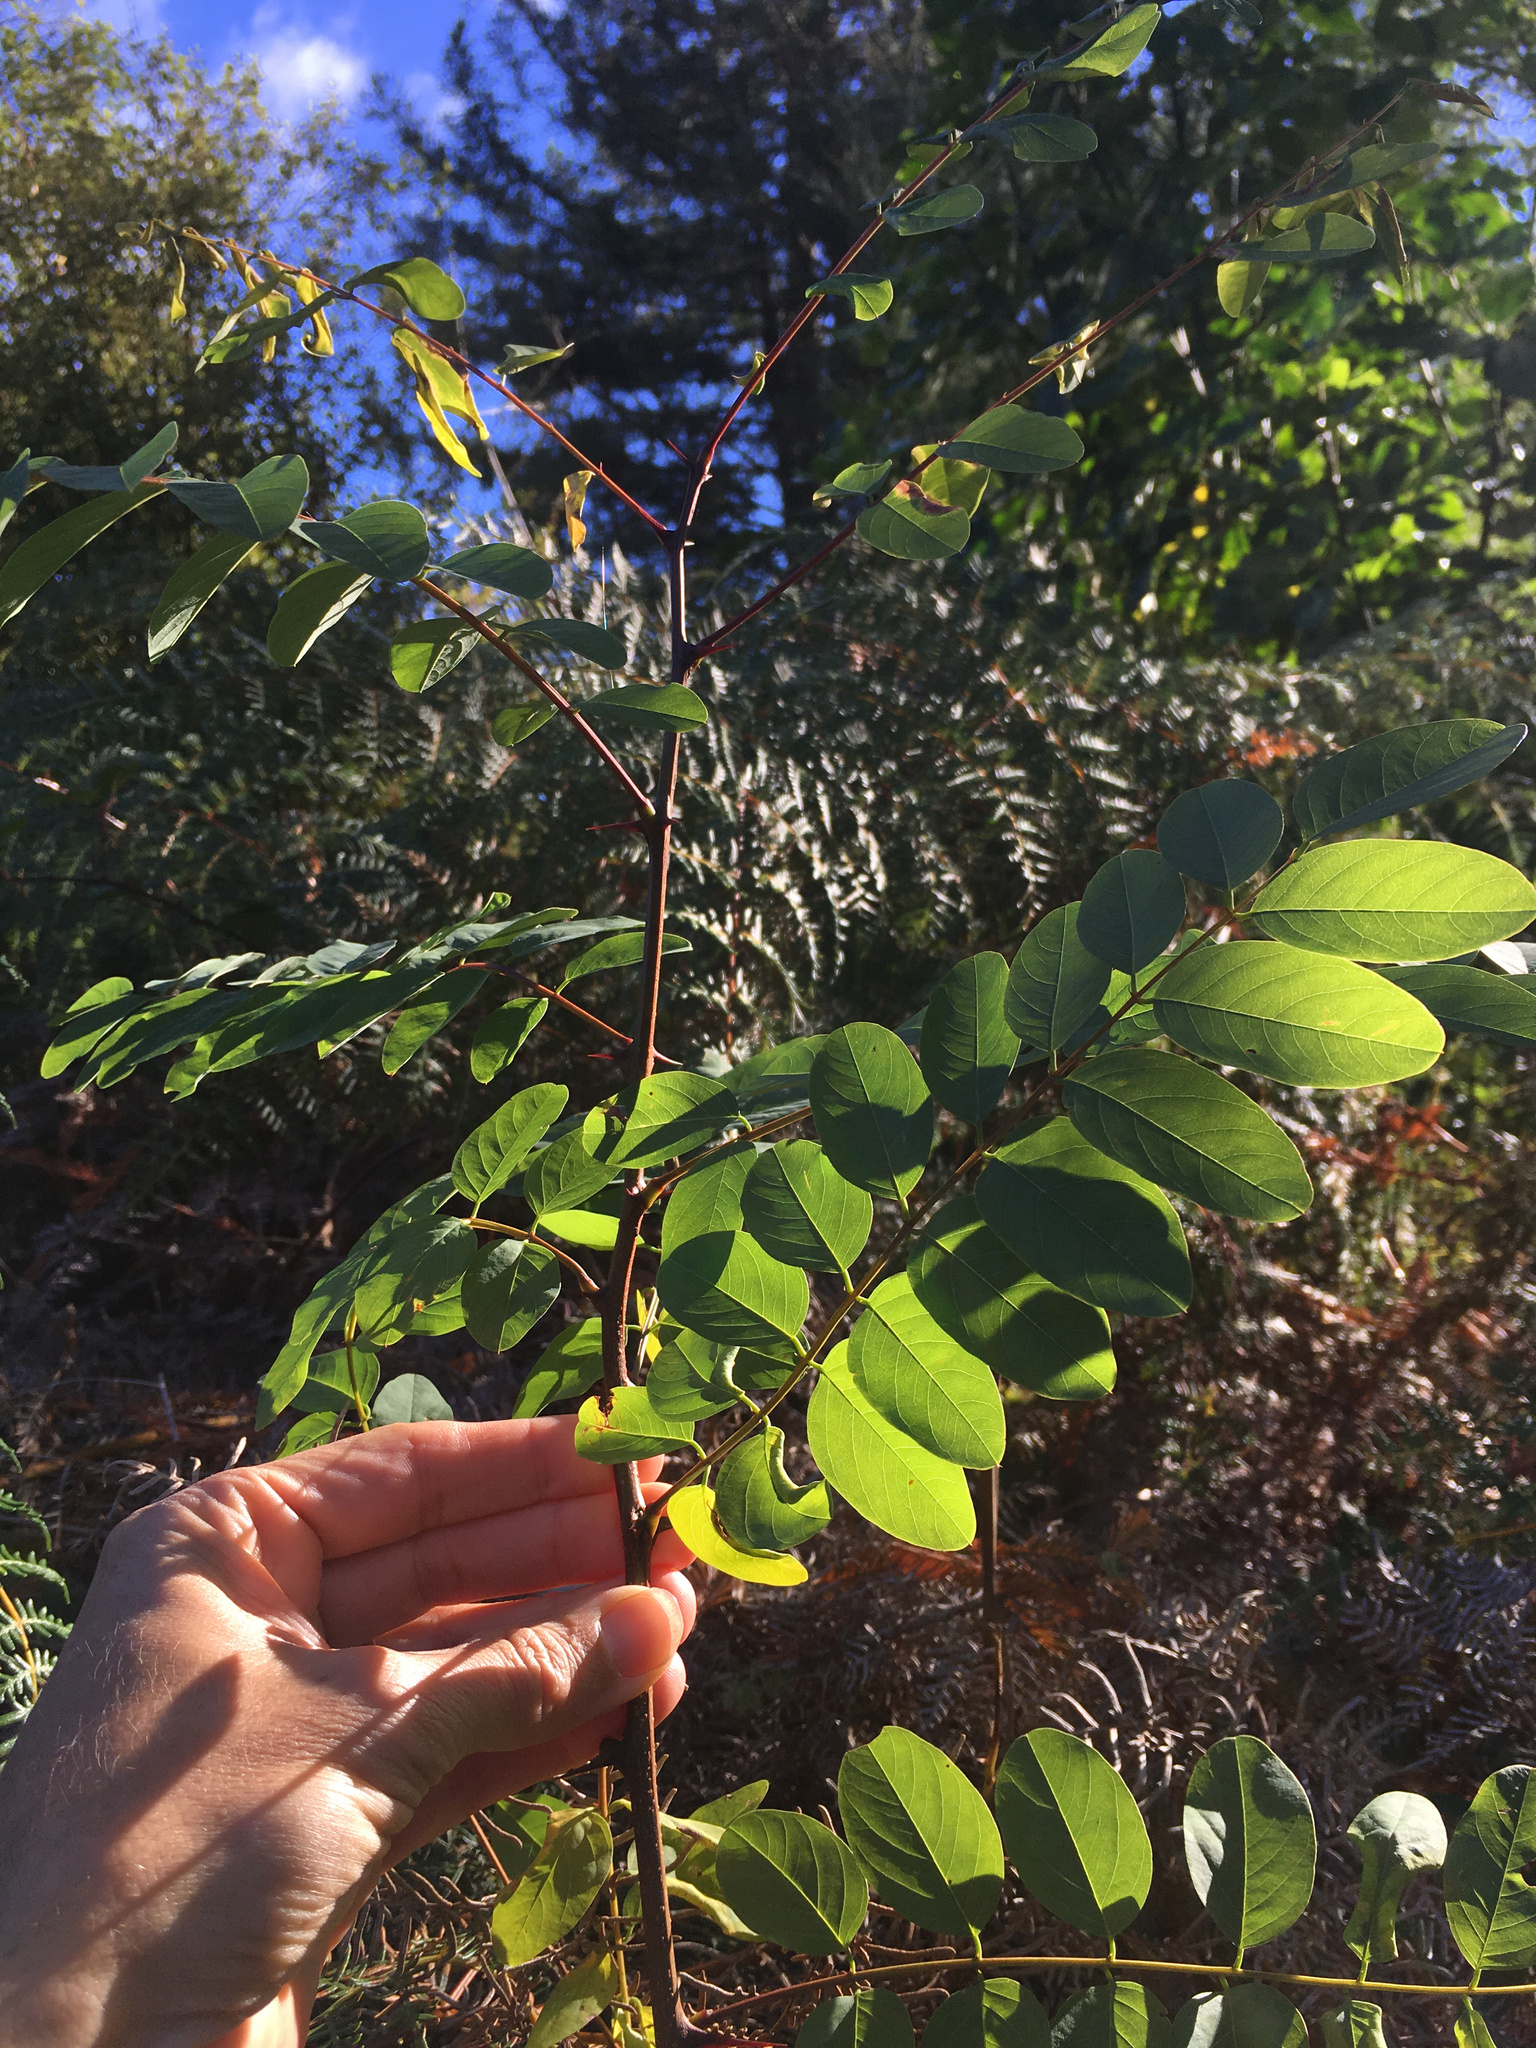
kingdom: Plantae
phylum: Tracheophyta
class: Magnoliopsida
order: Fabales
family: Fabaceae
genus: Robinia
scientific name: Robinia pseudoacacia
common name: Black locust
